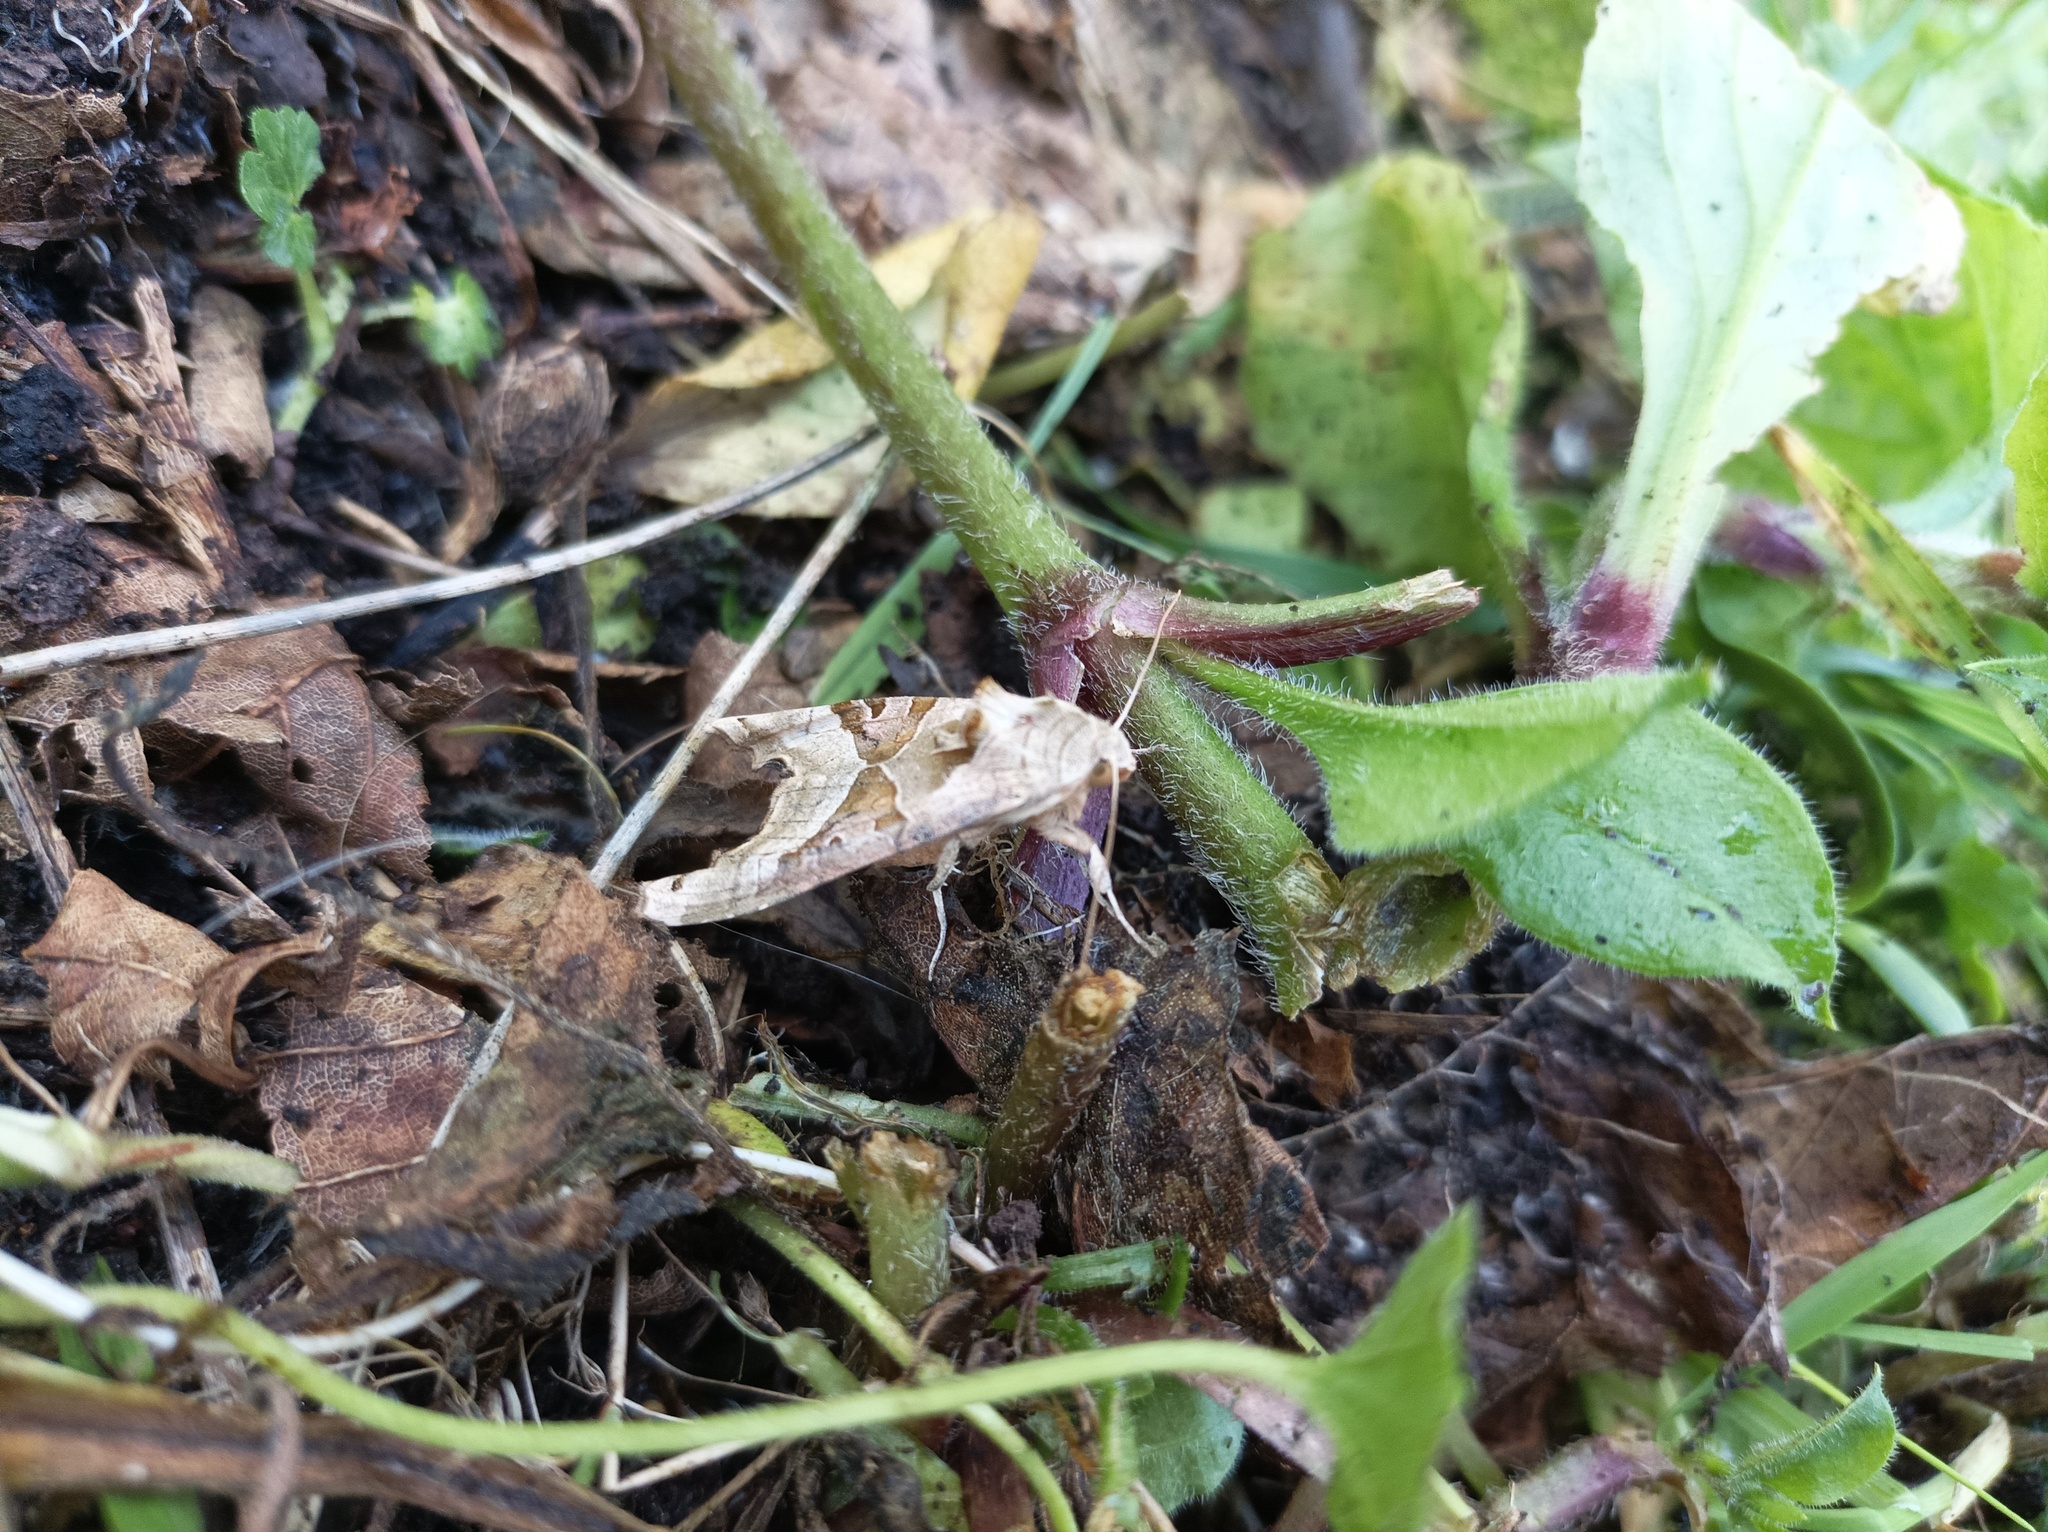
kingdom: Animalia
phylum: Arthropoda
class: Insecta
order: Lepidoptera
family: Noctuidae
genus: Phlogophora
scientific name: Phlogophora meticulosa
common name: Angle shades
